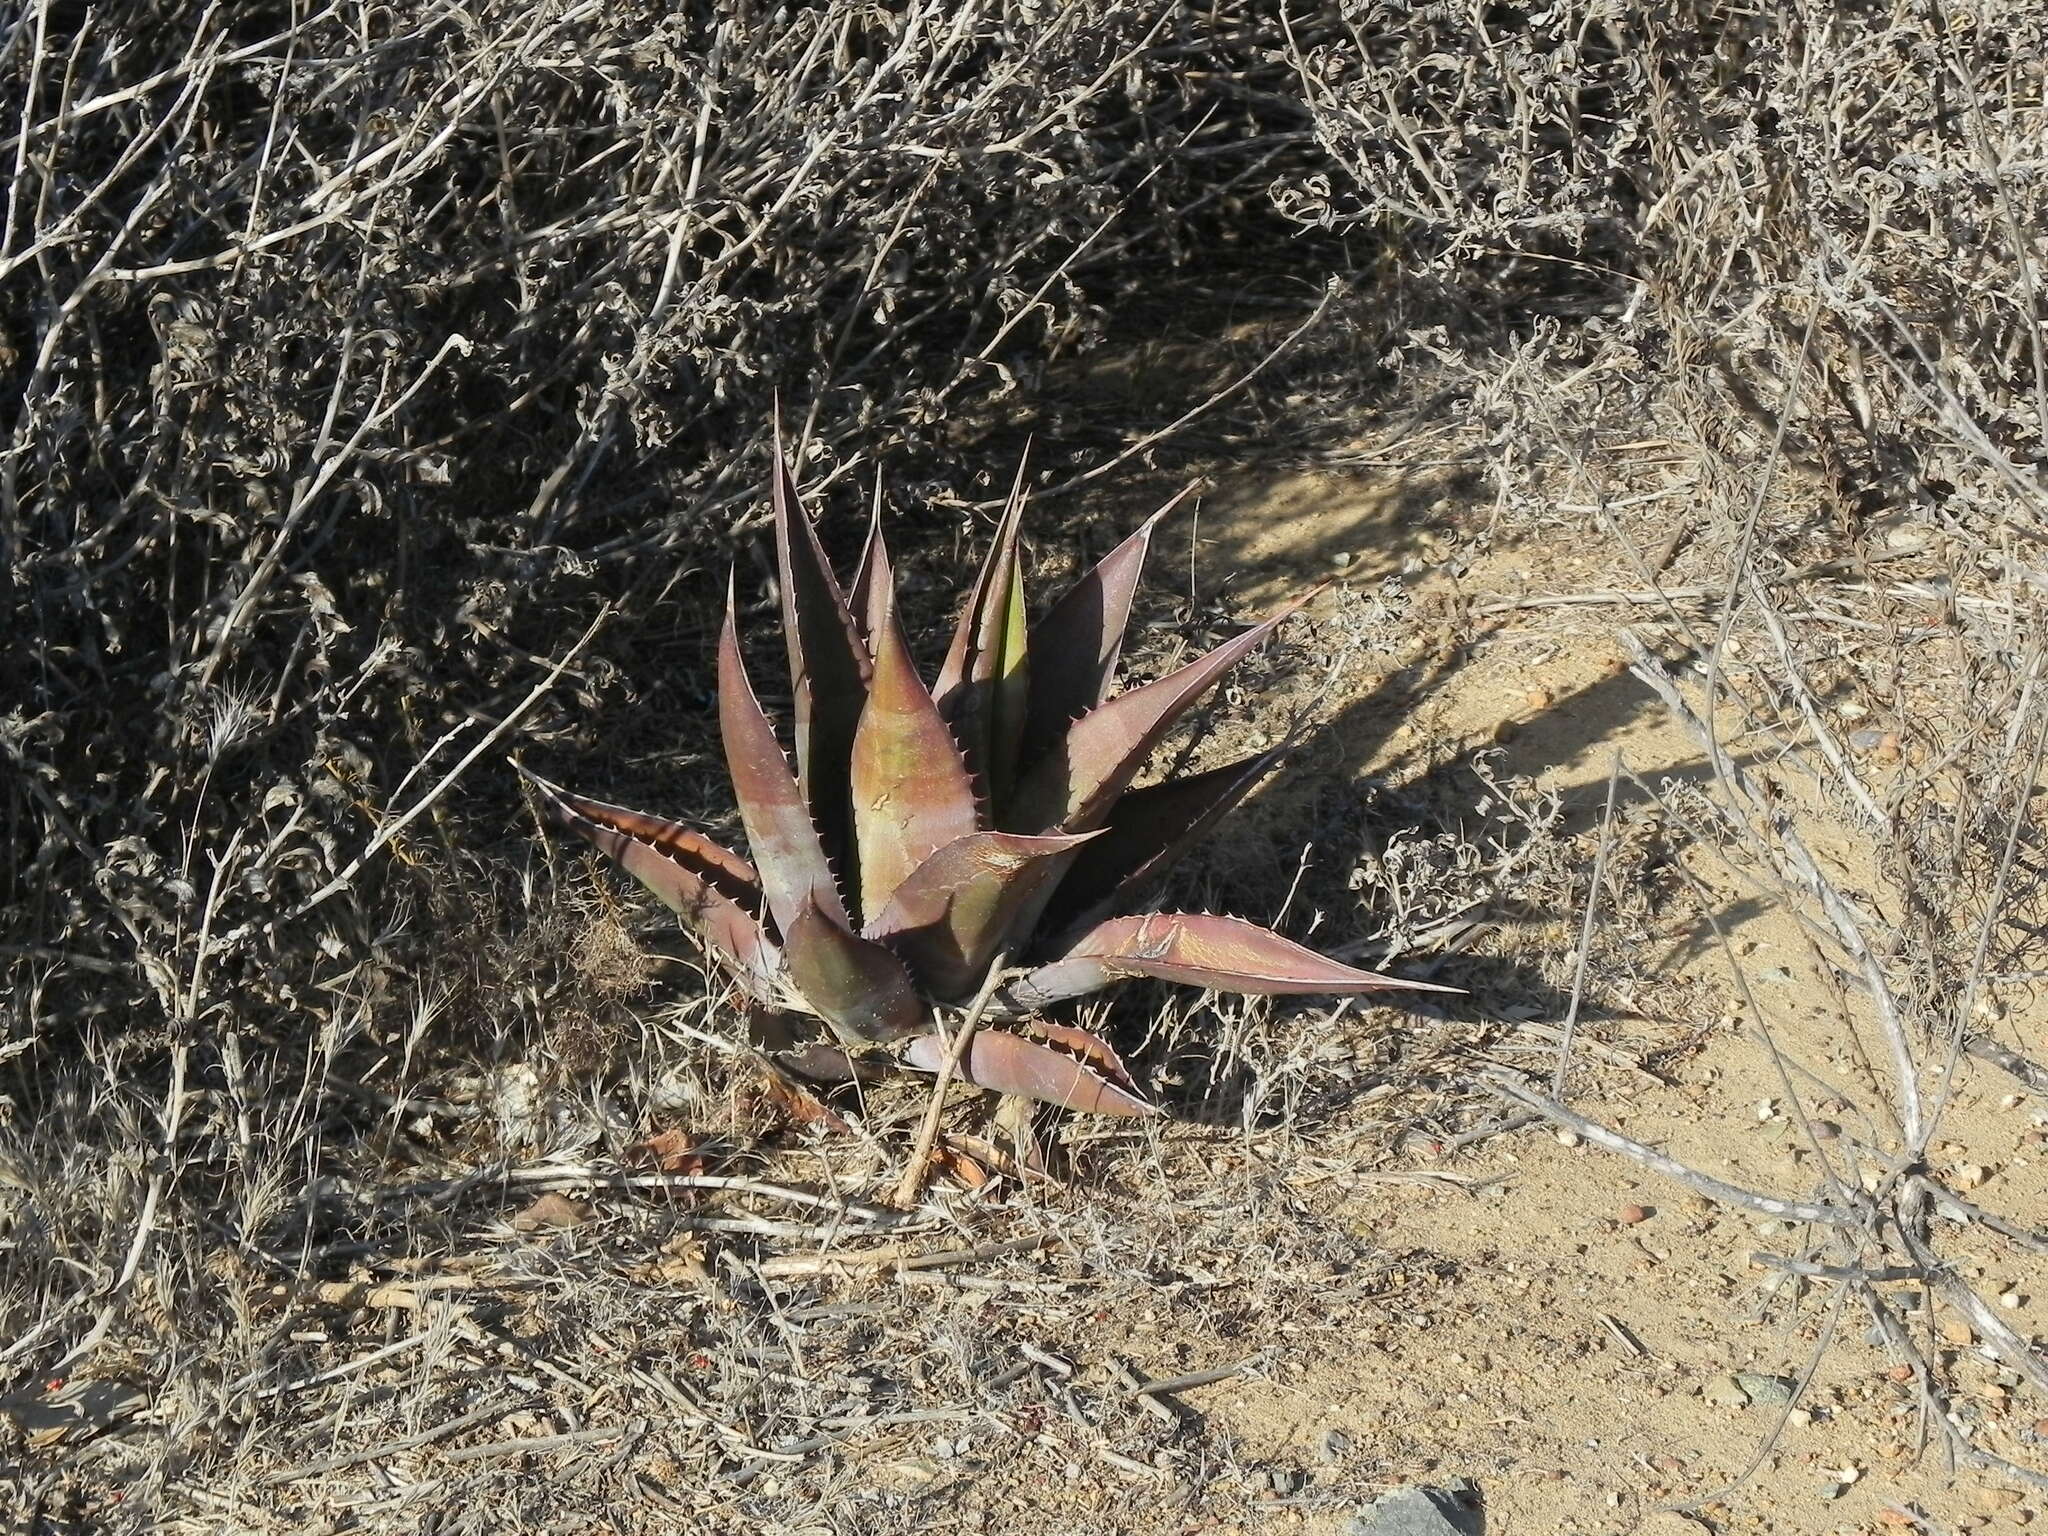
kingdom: Plantae
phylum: Tracheophyta
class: Liliopsida
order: Asparagales
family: Asparagaceae
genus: Agave
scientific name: Agave shawii
